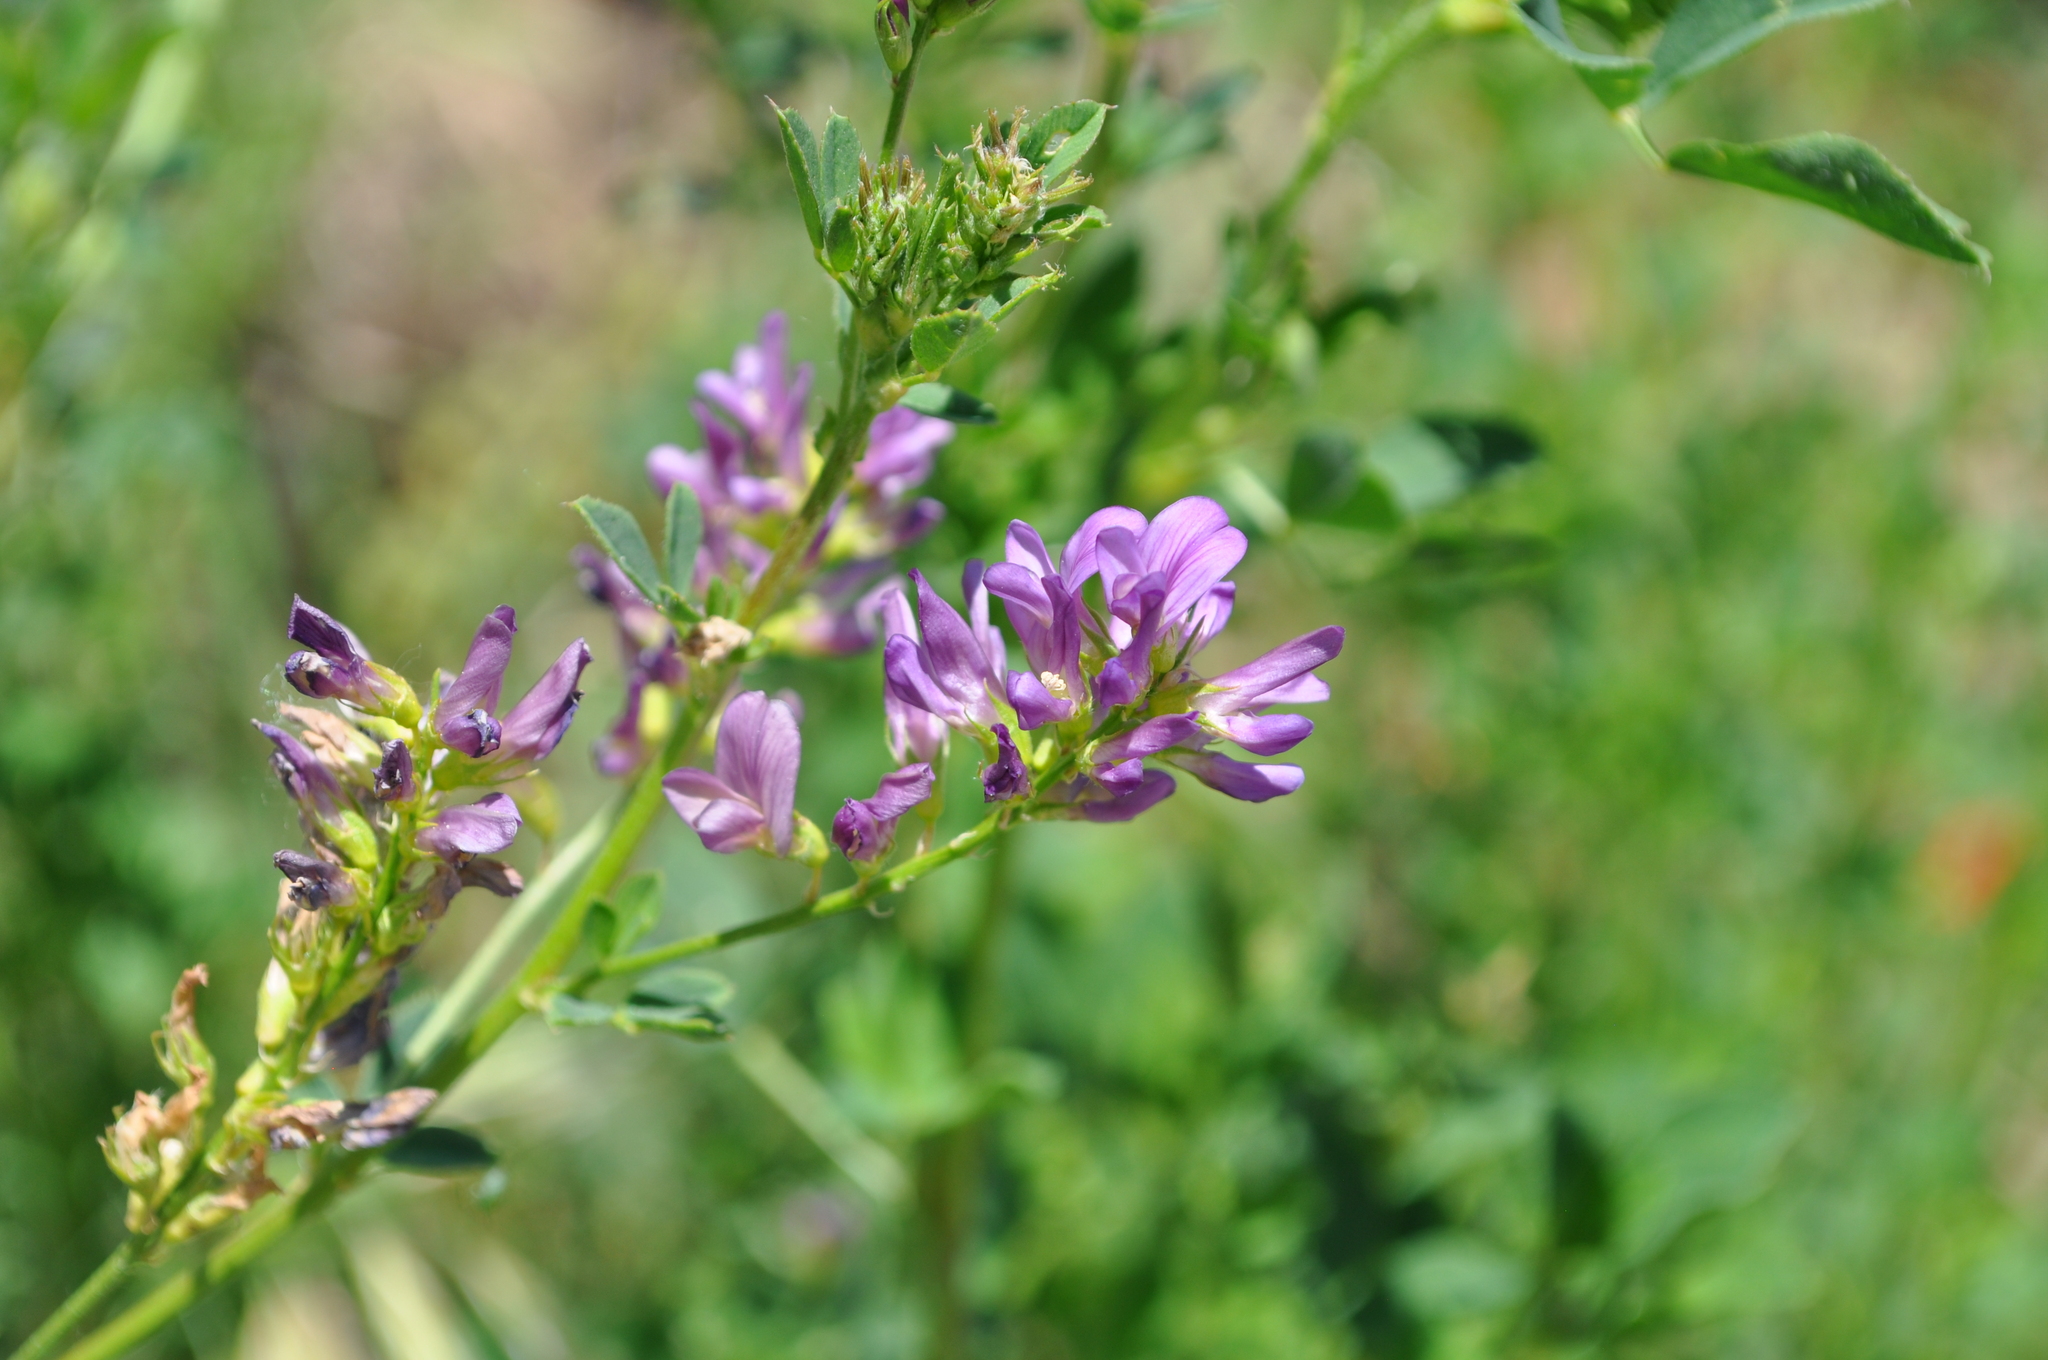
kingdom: Plantae
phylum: Tracheophyta
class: Magnoliopsida
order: Fabales
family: Fabaceae
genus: Medicago
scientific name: Medicago sativa
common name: Alfalfa
